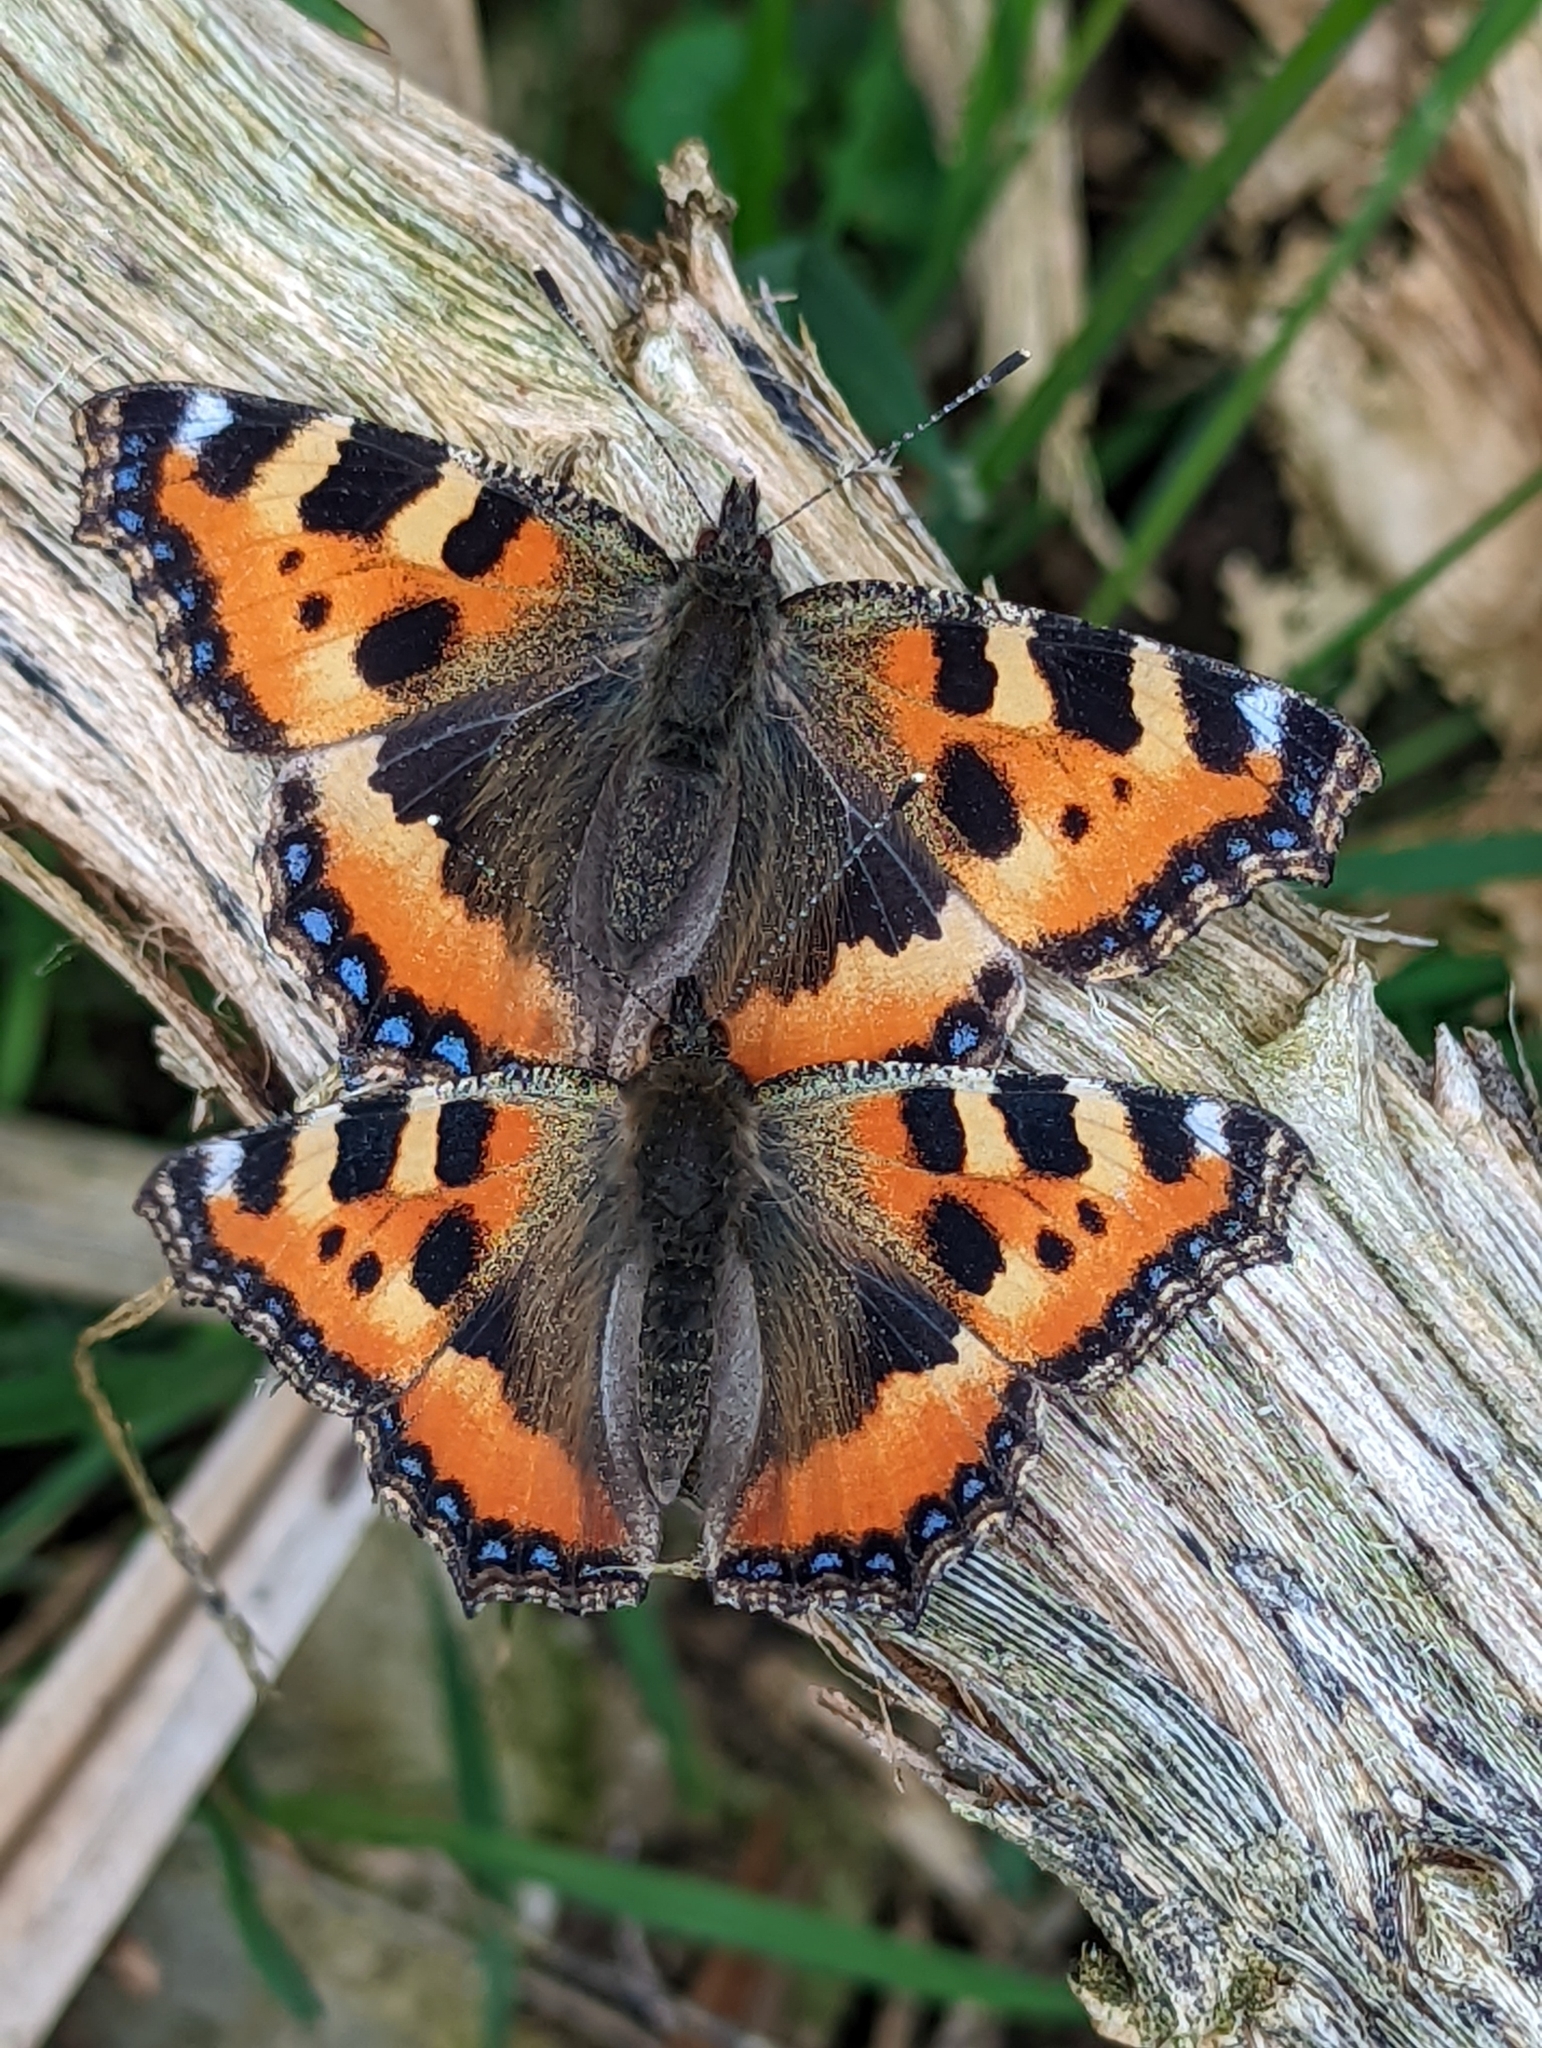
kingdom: Animalia
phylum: Arthropoda
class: Insecta
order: Lepidoptera
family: Nymphalidae
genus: Aglais
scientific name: Aglais urticae
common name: Small tortoiseshell
